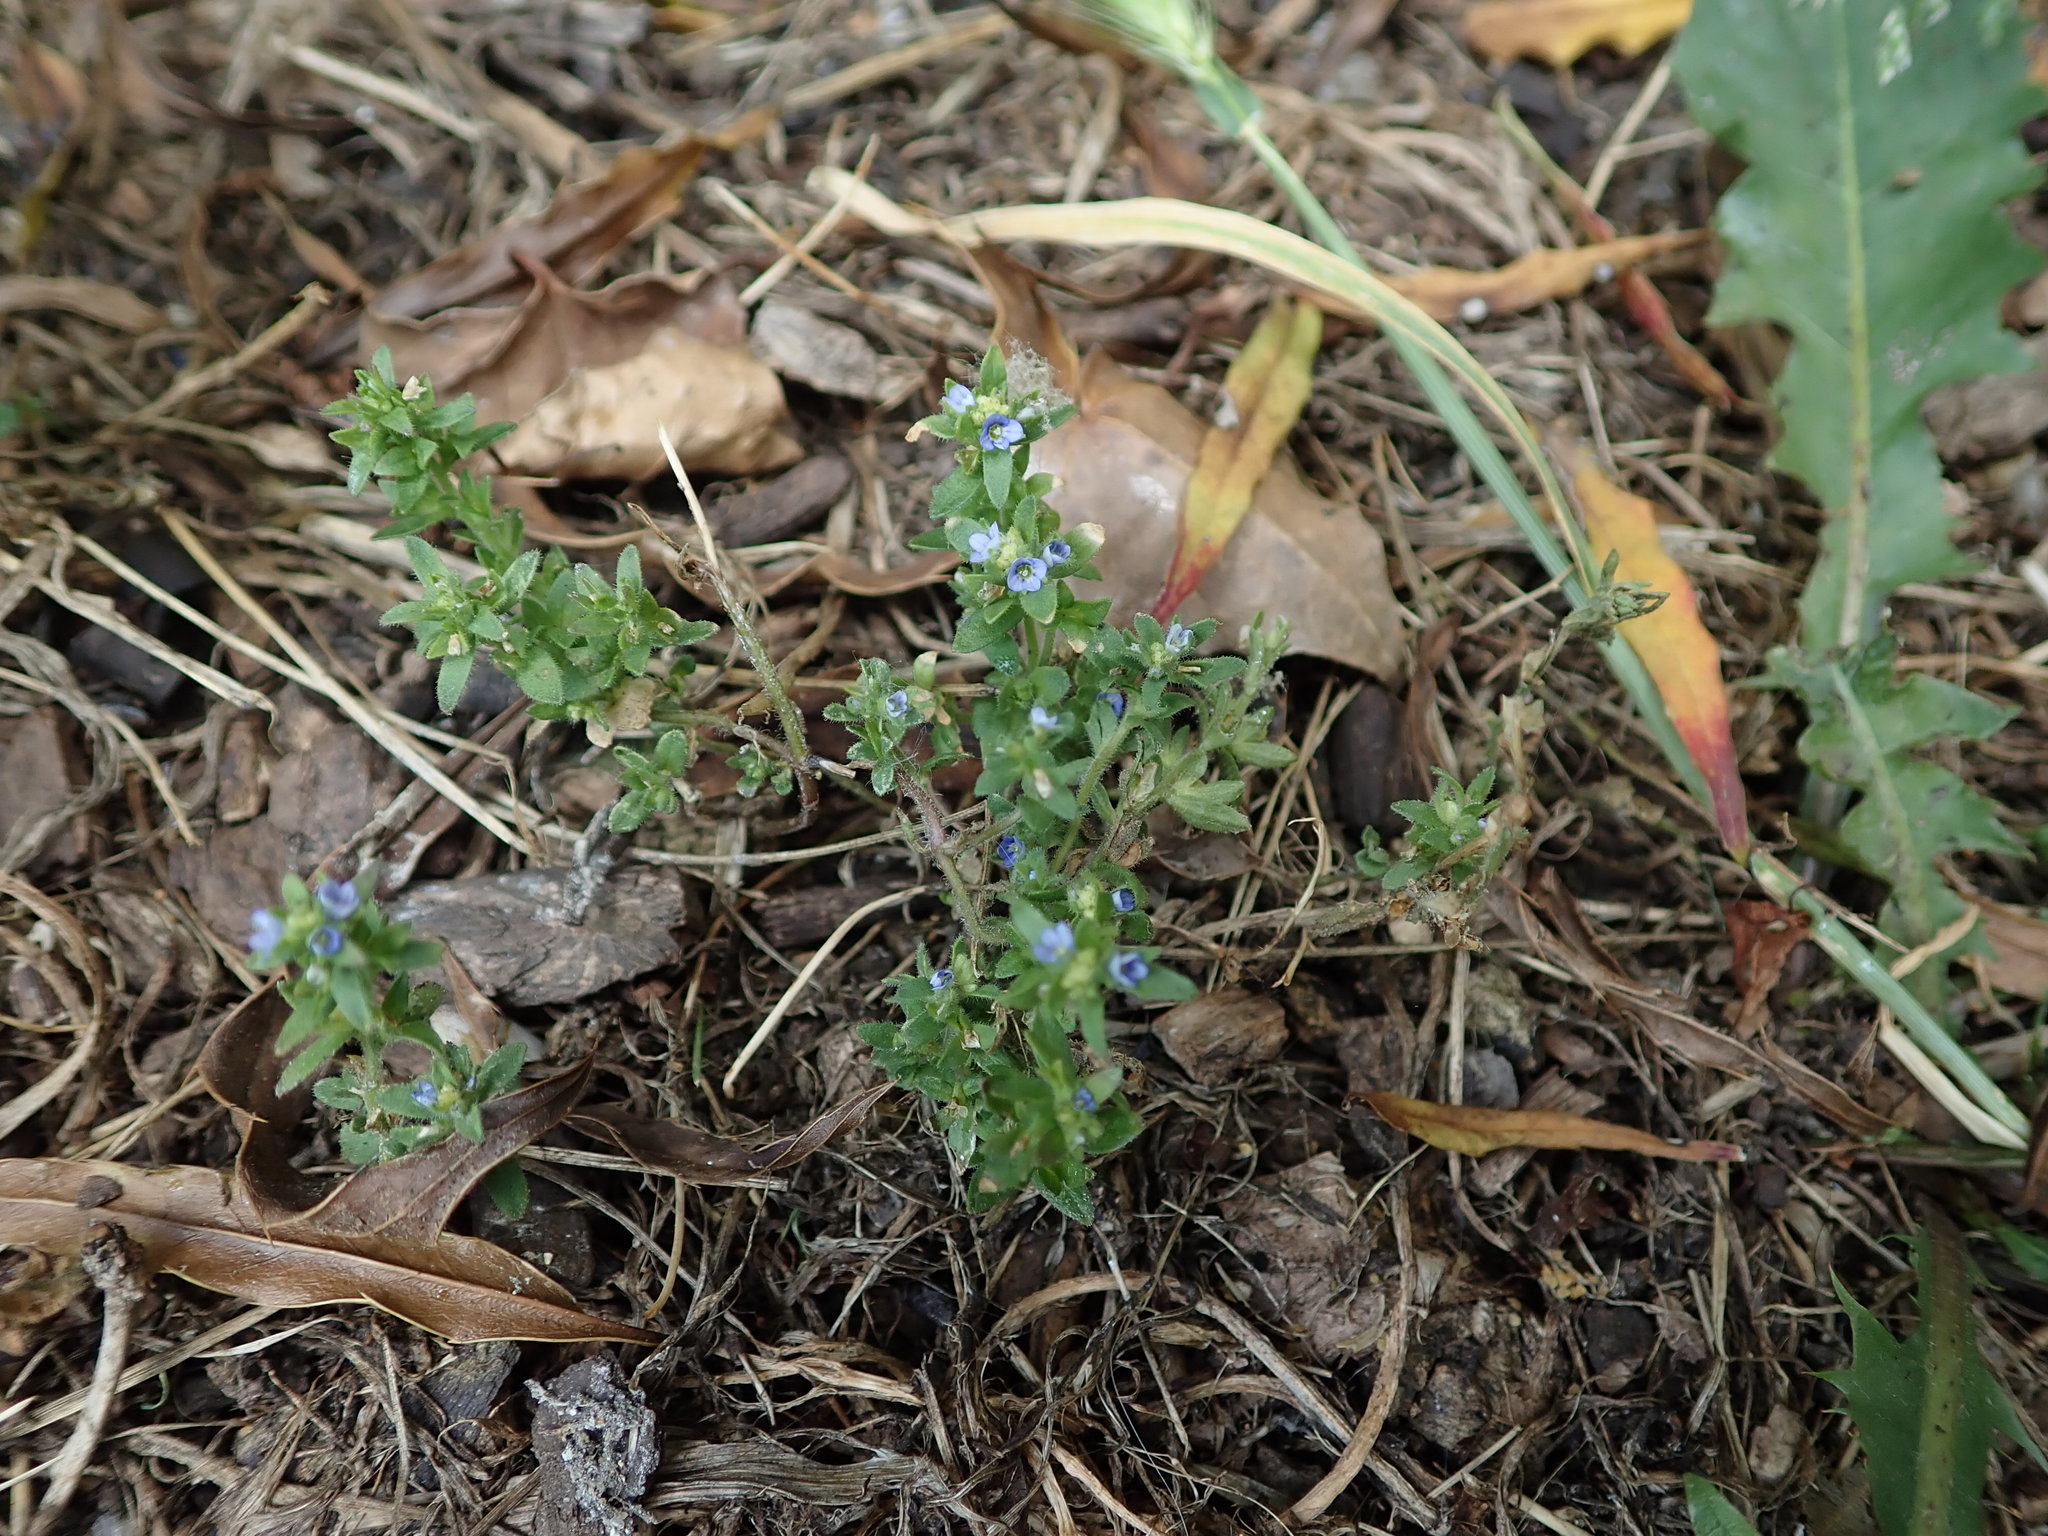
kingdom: Plantae
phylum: Tracheophyta
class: Magnoliopsida
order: Lamiales
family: Plantaginaceae
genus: Veronica
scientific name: Veronica arvensis
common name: Corn speedwell
